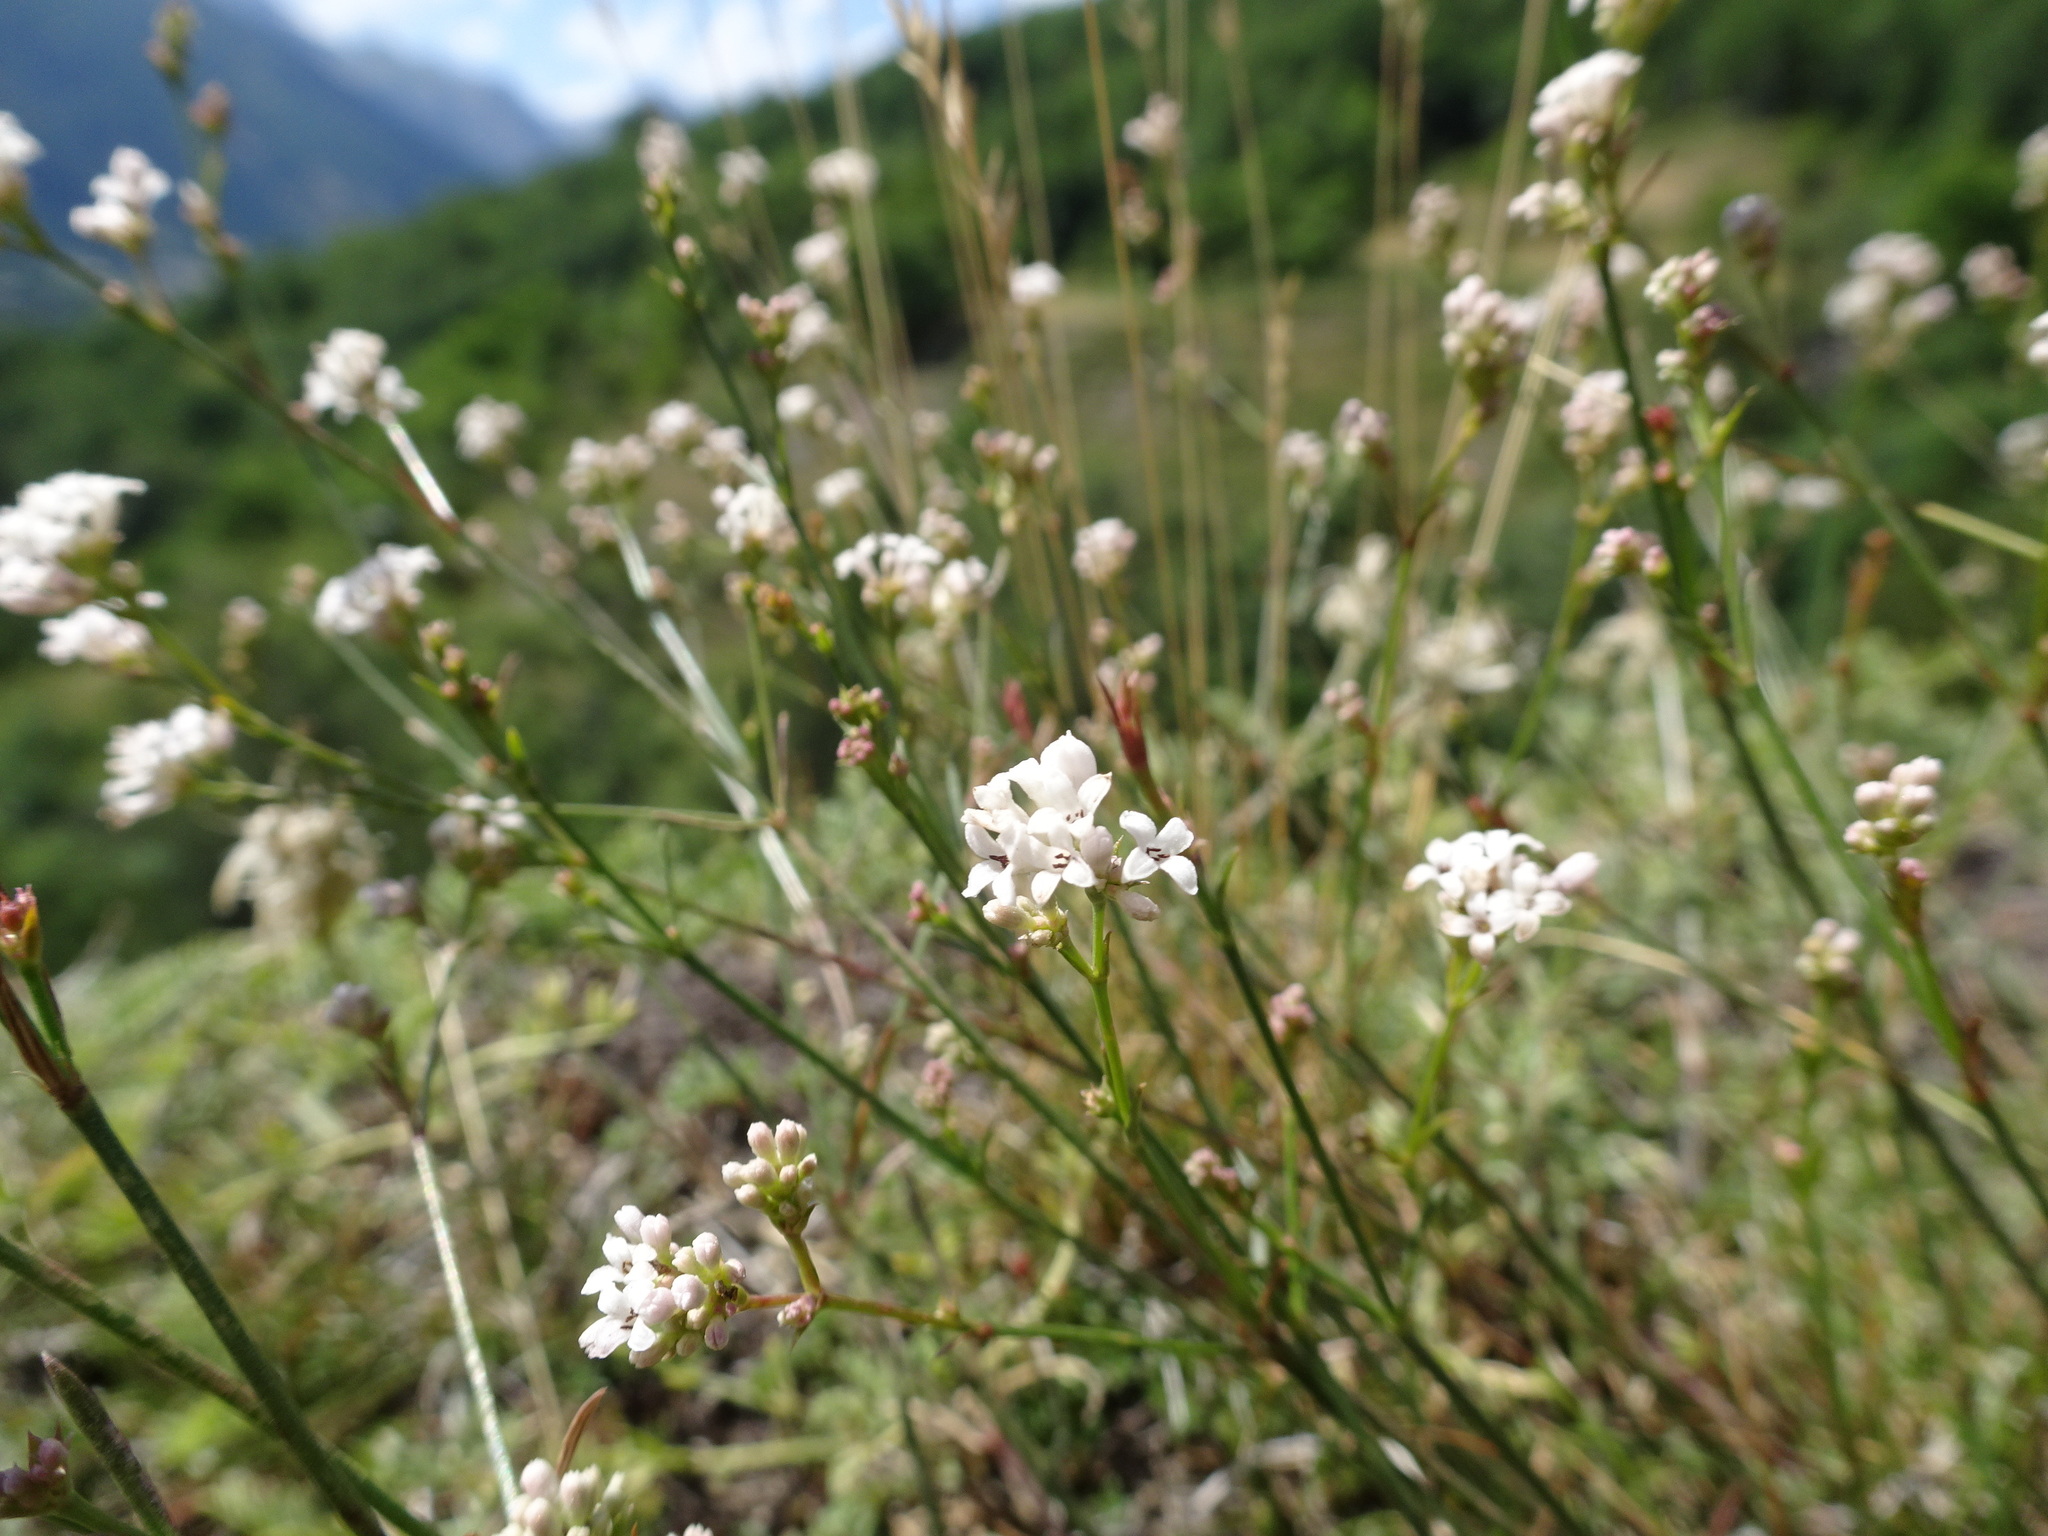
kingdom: Plantae
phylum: Tracheophyta
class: Magnoliopsida
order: Gentianales
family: Rubiaceae
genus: Cynanchica
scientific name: Cynanchica pyrenaica
